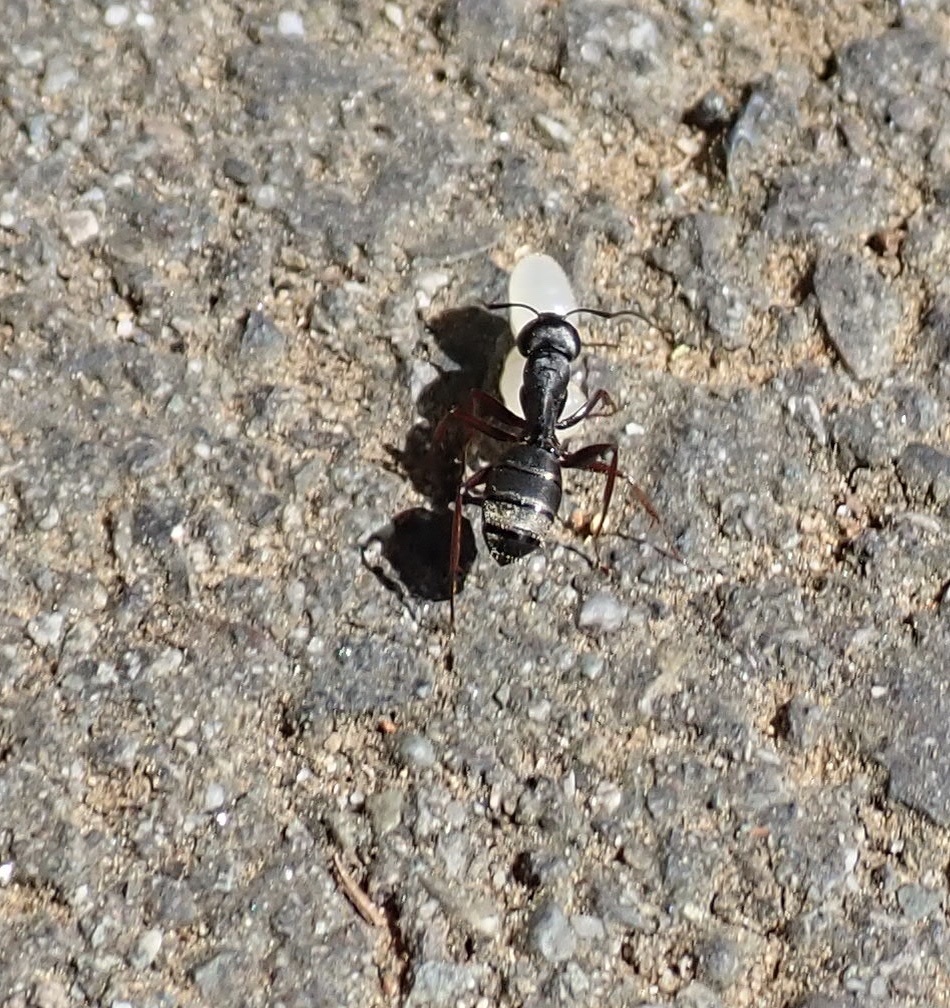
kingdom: Animalia
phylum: Arthropoda
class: Insecta
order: Hymenoptera
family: Formicidae
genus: Camponotus
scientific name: Camponotus modoc
